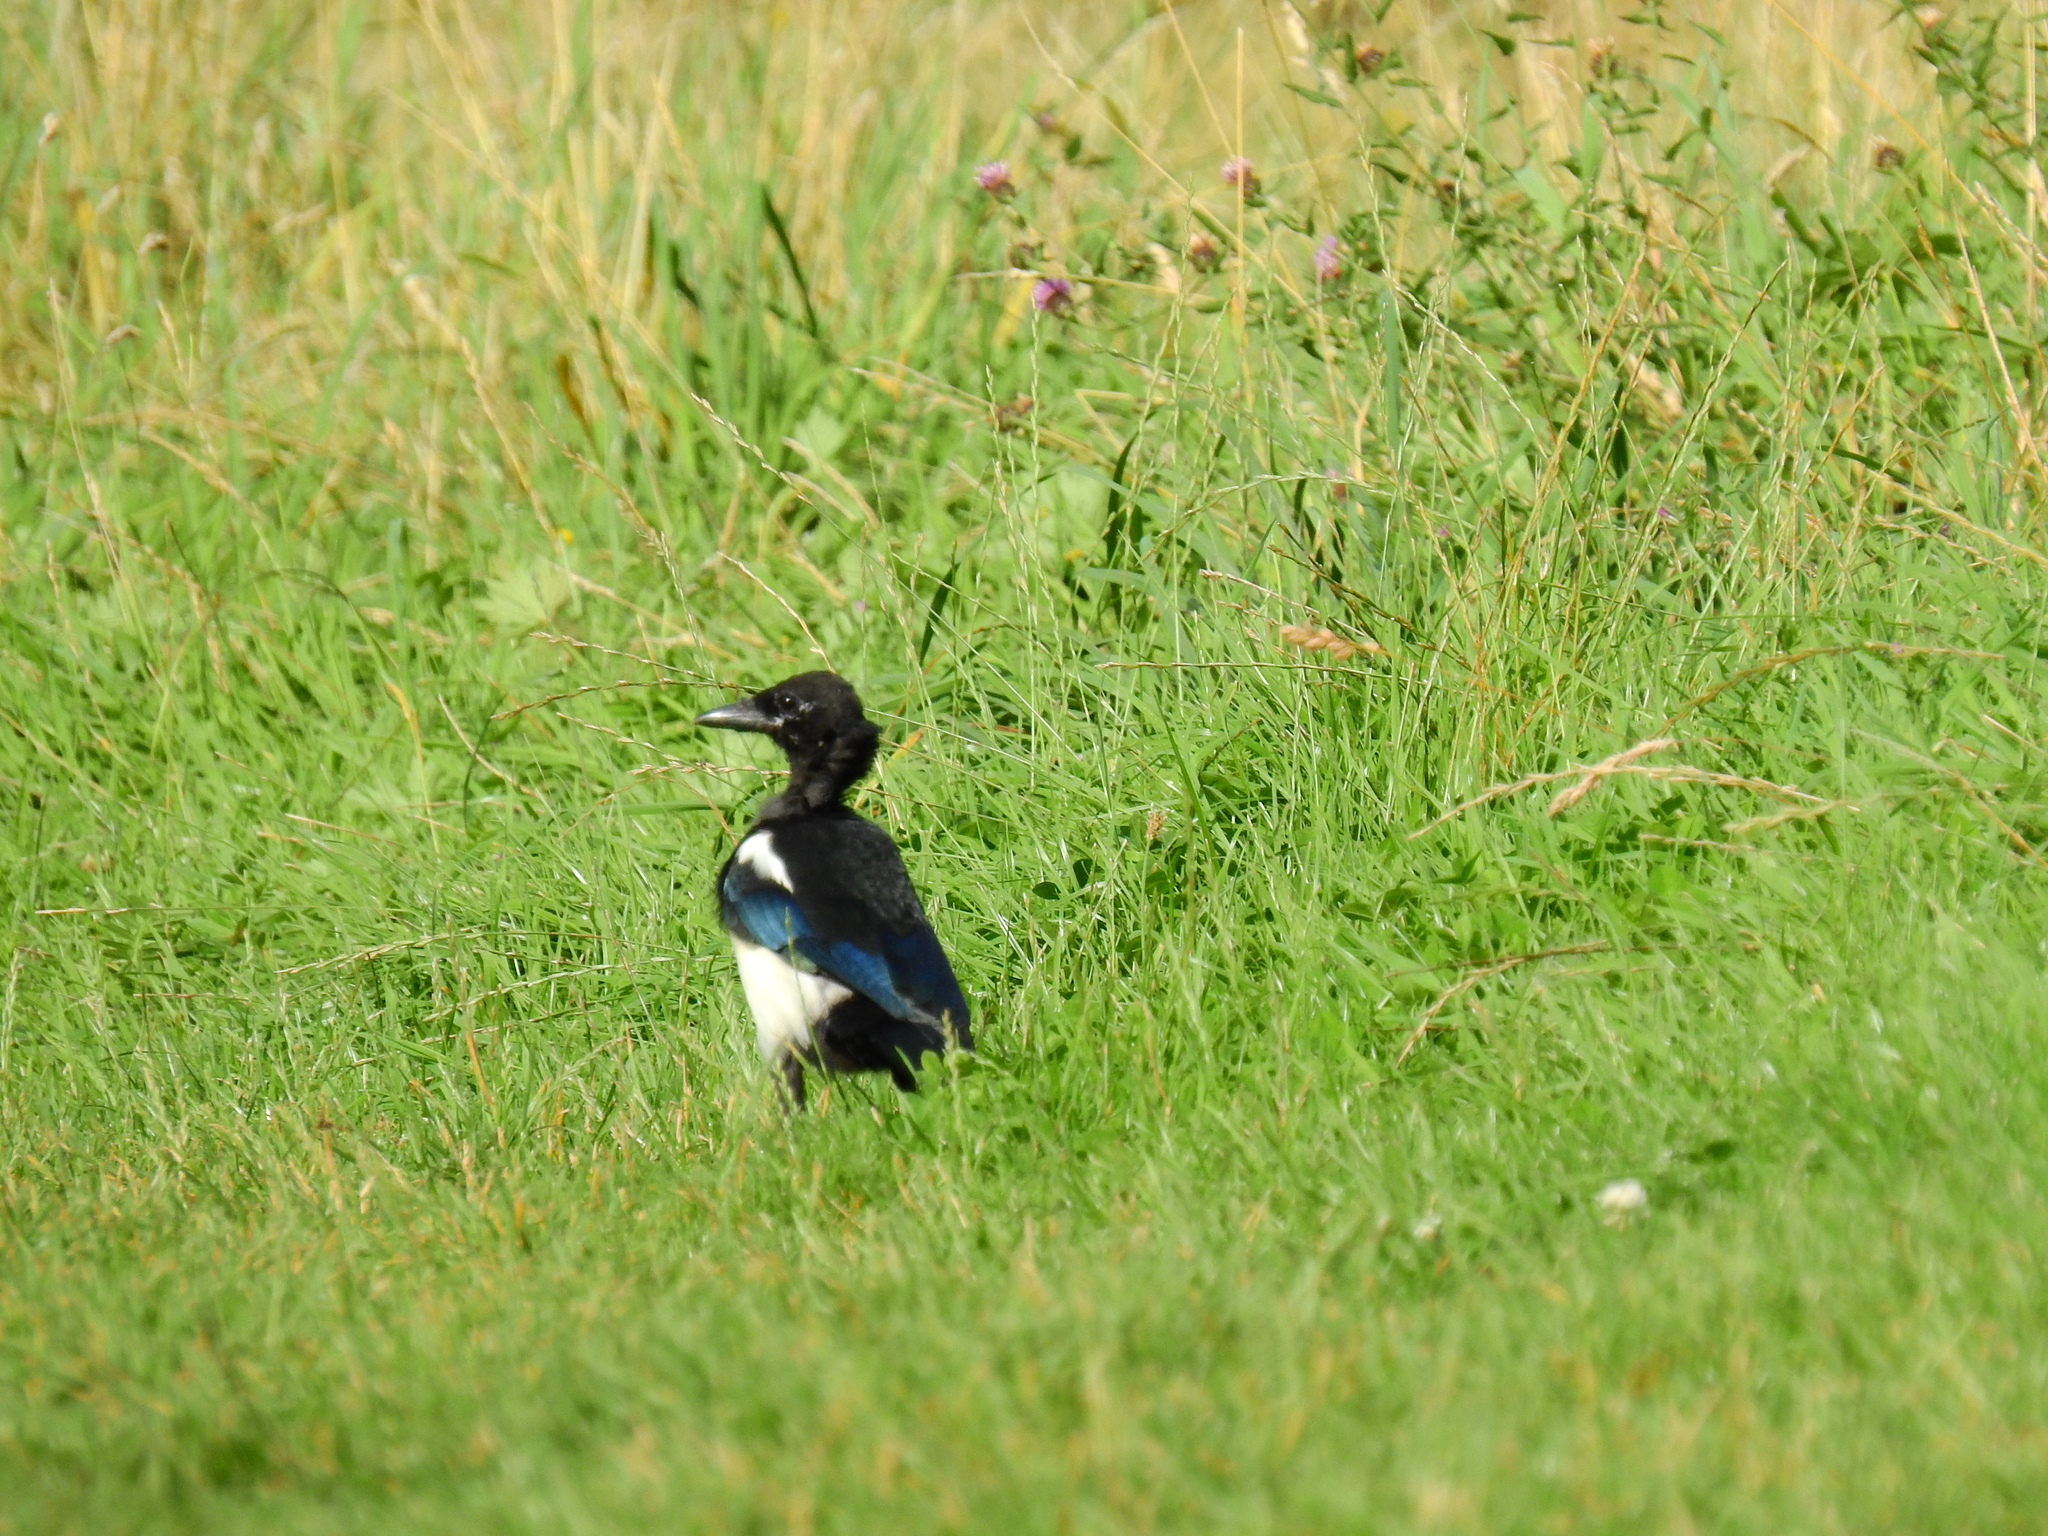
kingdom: Animalia
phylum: Chordata
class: Aves
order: Passeriformes
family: Corvidae
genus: Pica
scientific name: Pica pica
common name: Eurasian magpie
